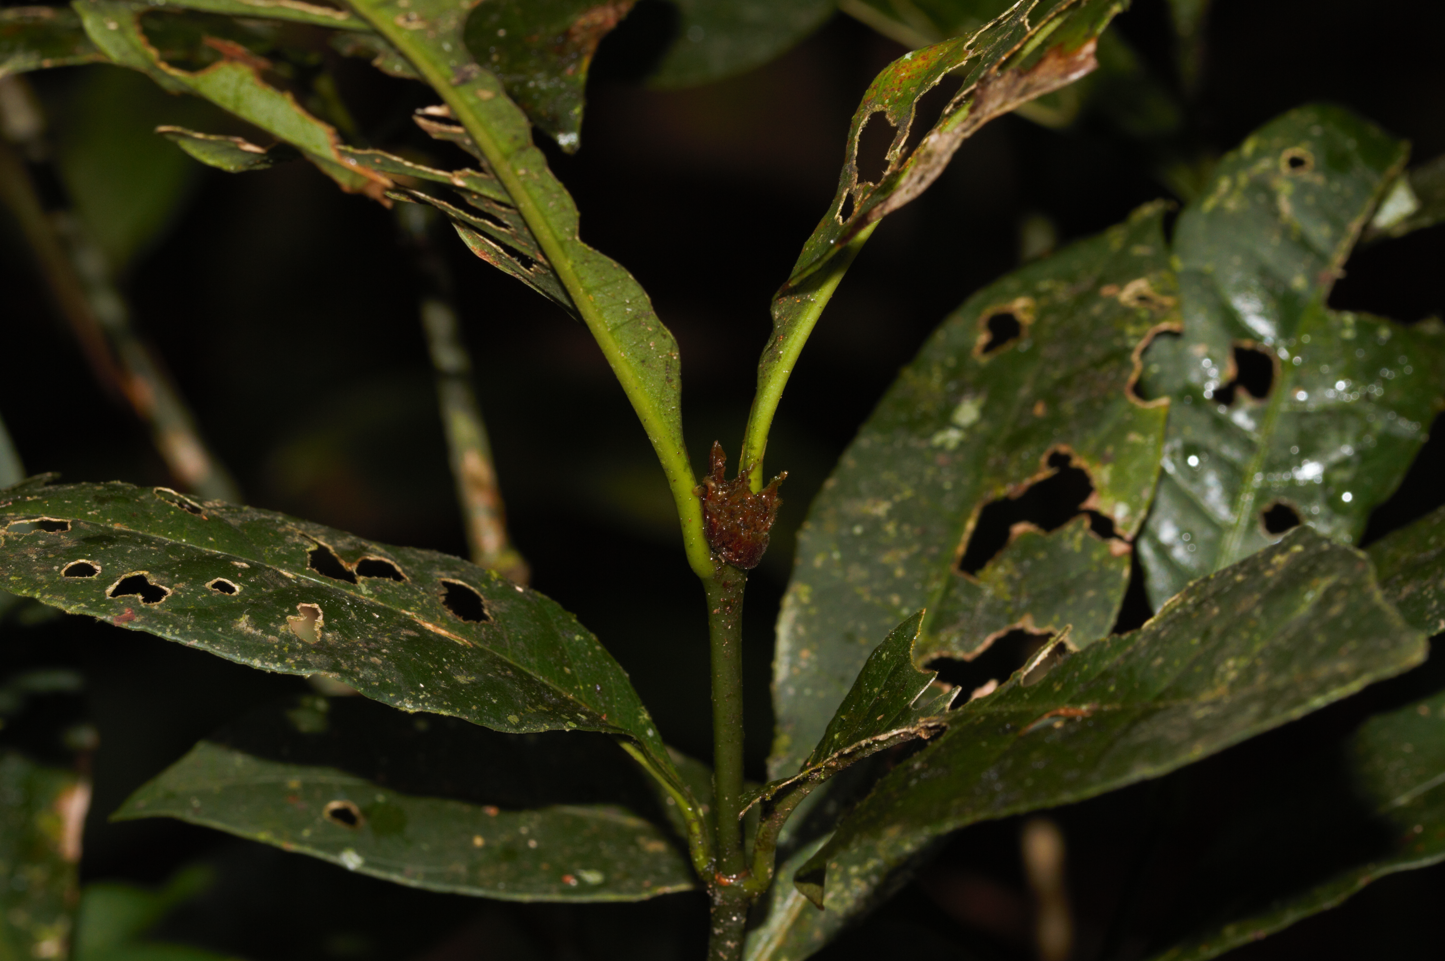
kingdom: Plantae
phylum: Tracheophyta
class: Magnoliopsida
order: Gentianales
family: Rubiaceae
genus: Eumachia
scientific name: Eumachia kappleri
